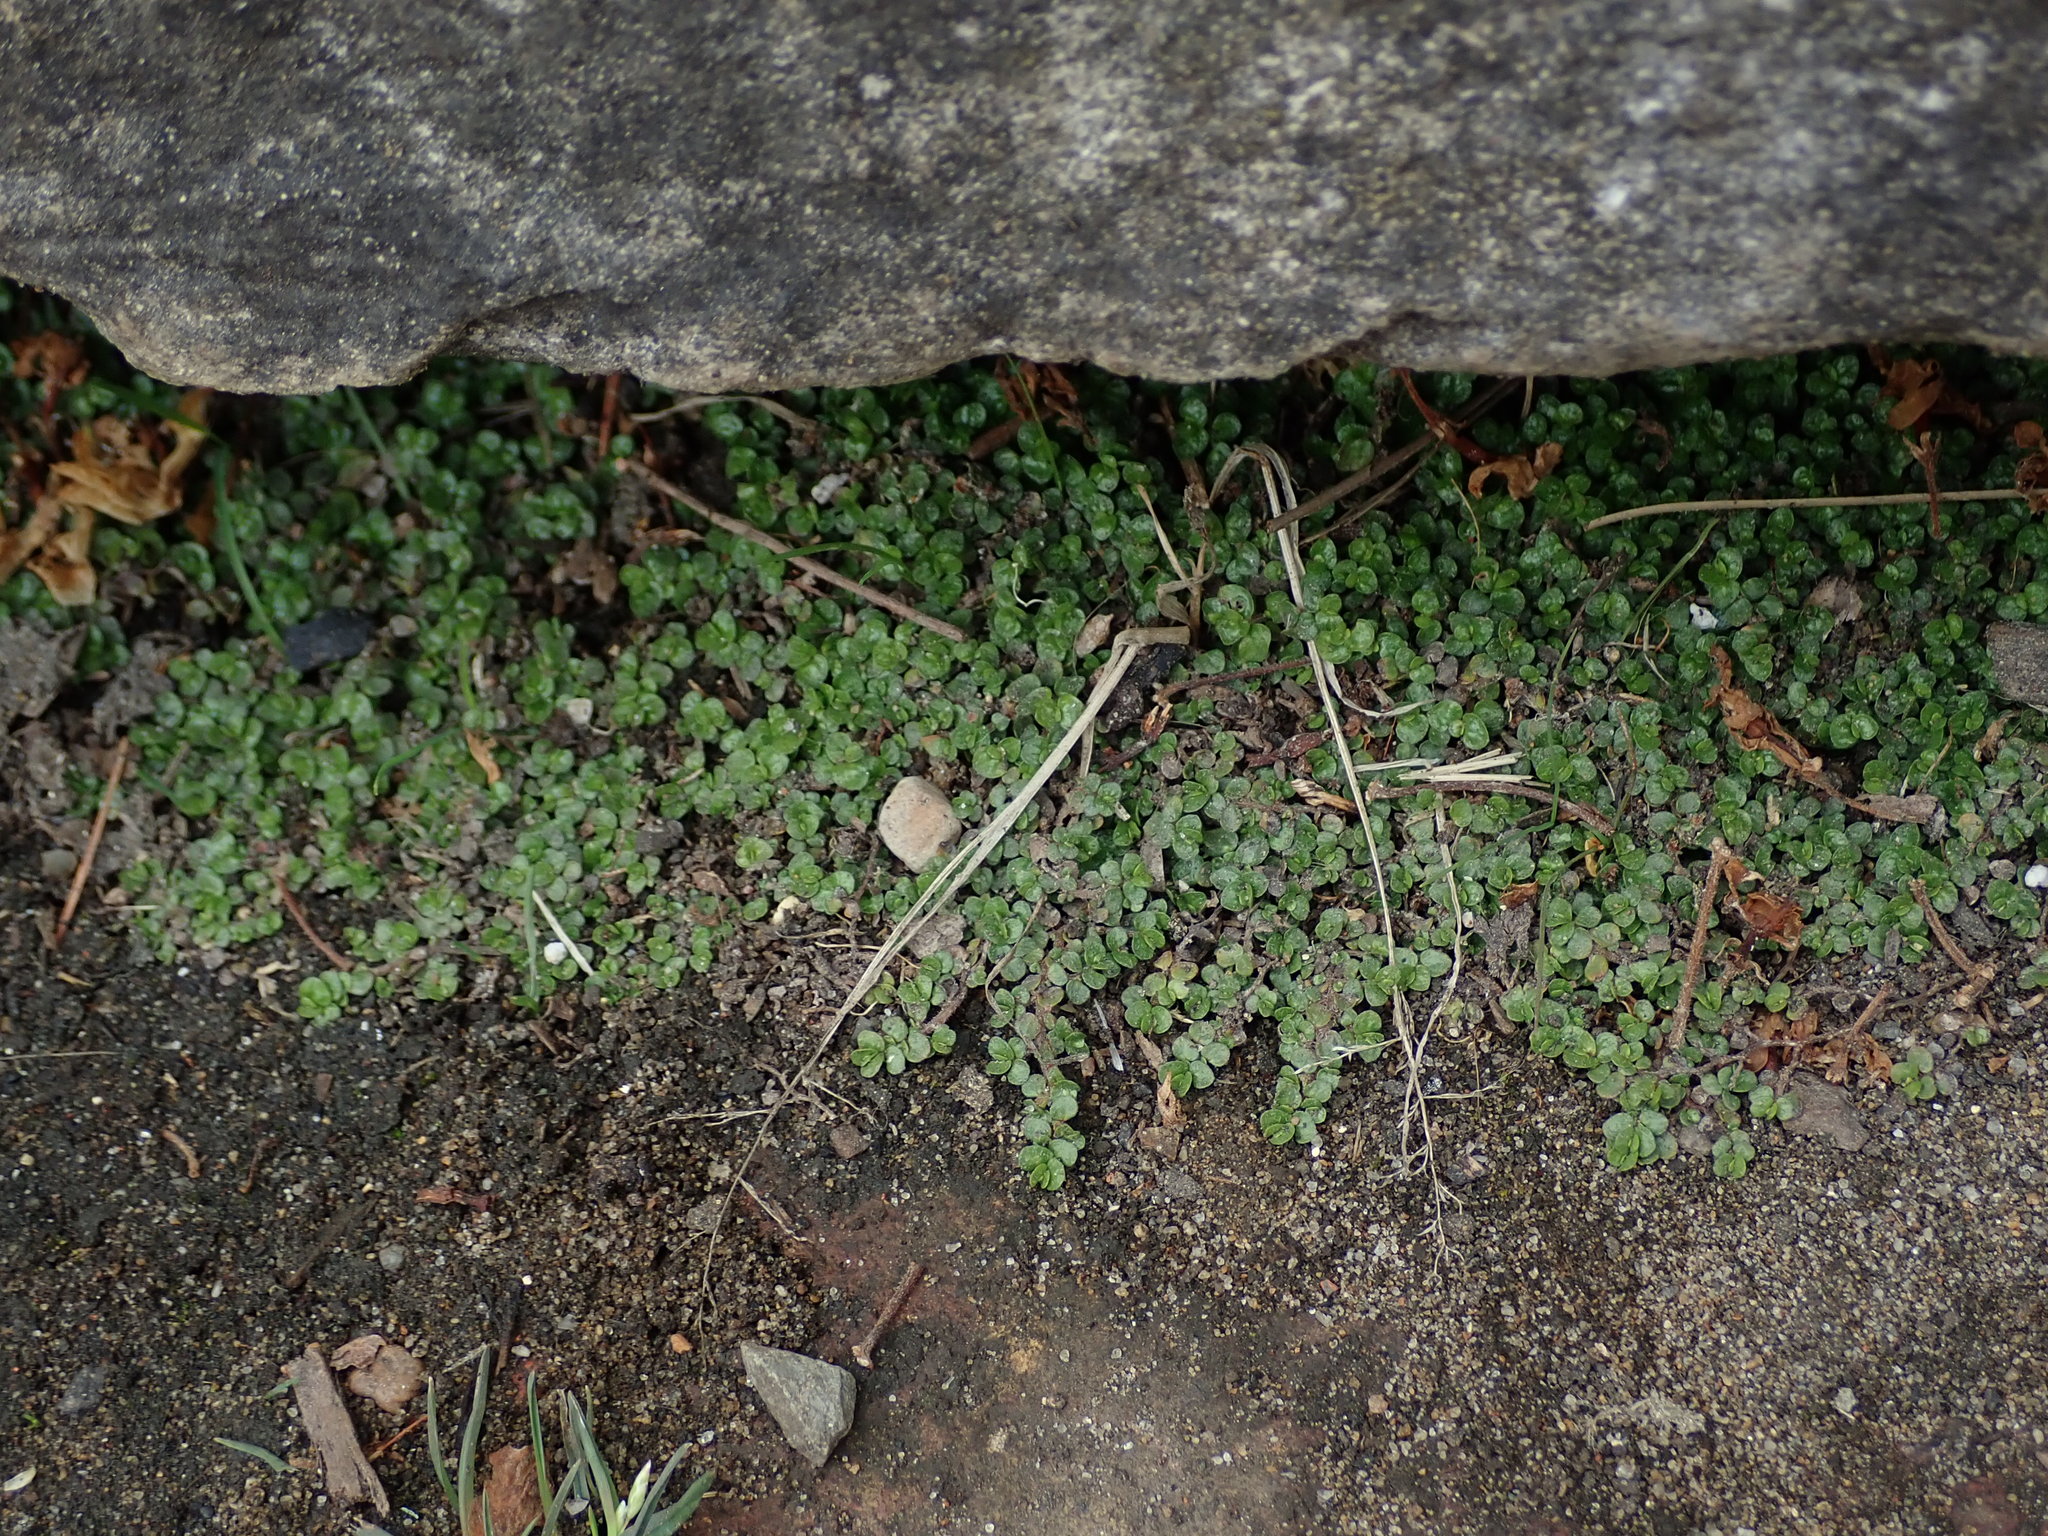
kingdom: Plantae
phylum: Tracheophyta
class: Magnoliopsida
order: Rosales
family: Urticaceae
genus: Soleirolia
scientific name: Soleirolia soleirolii
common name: Mind-your-own-business
